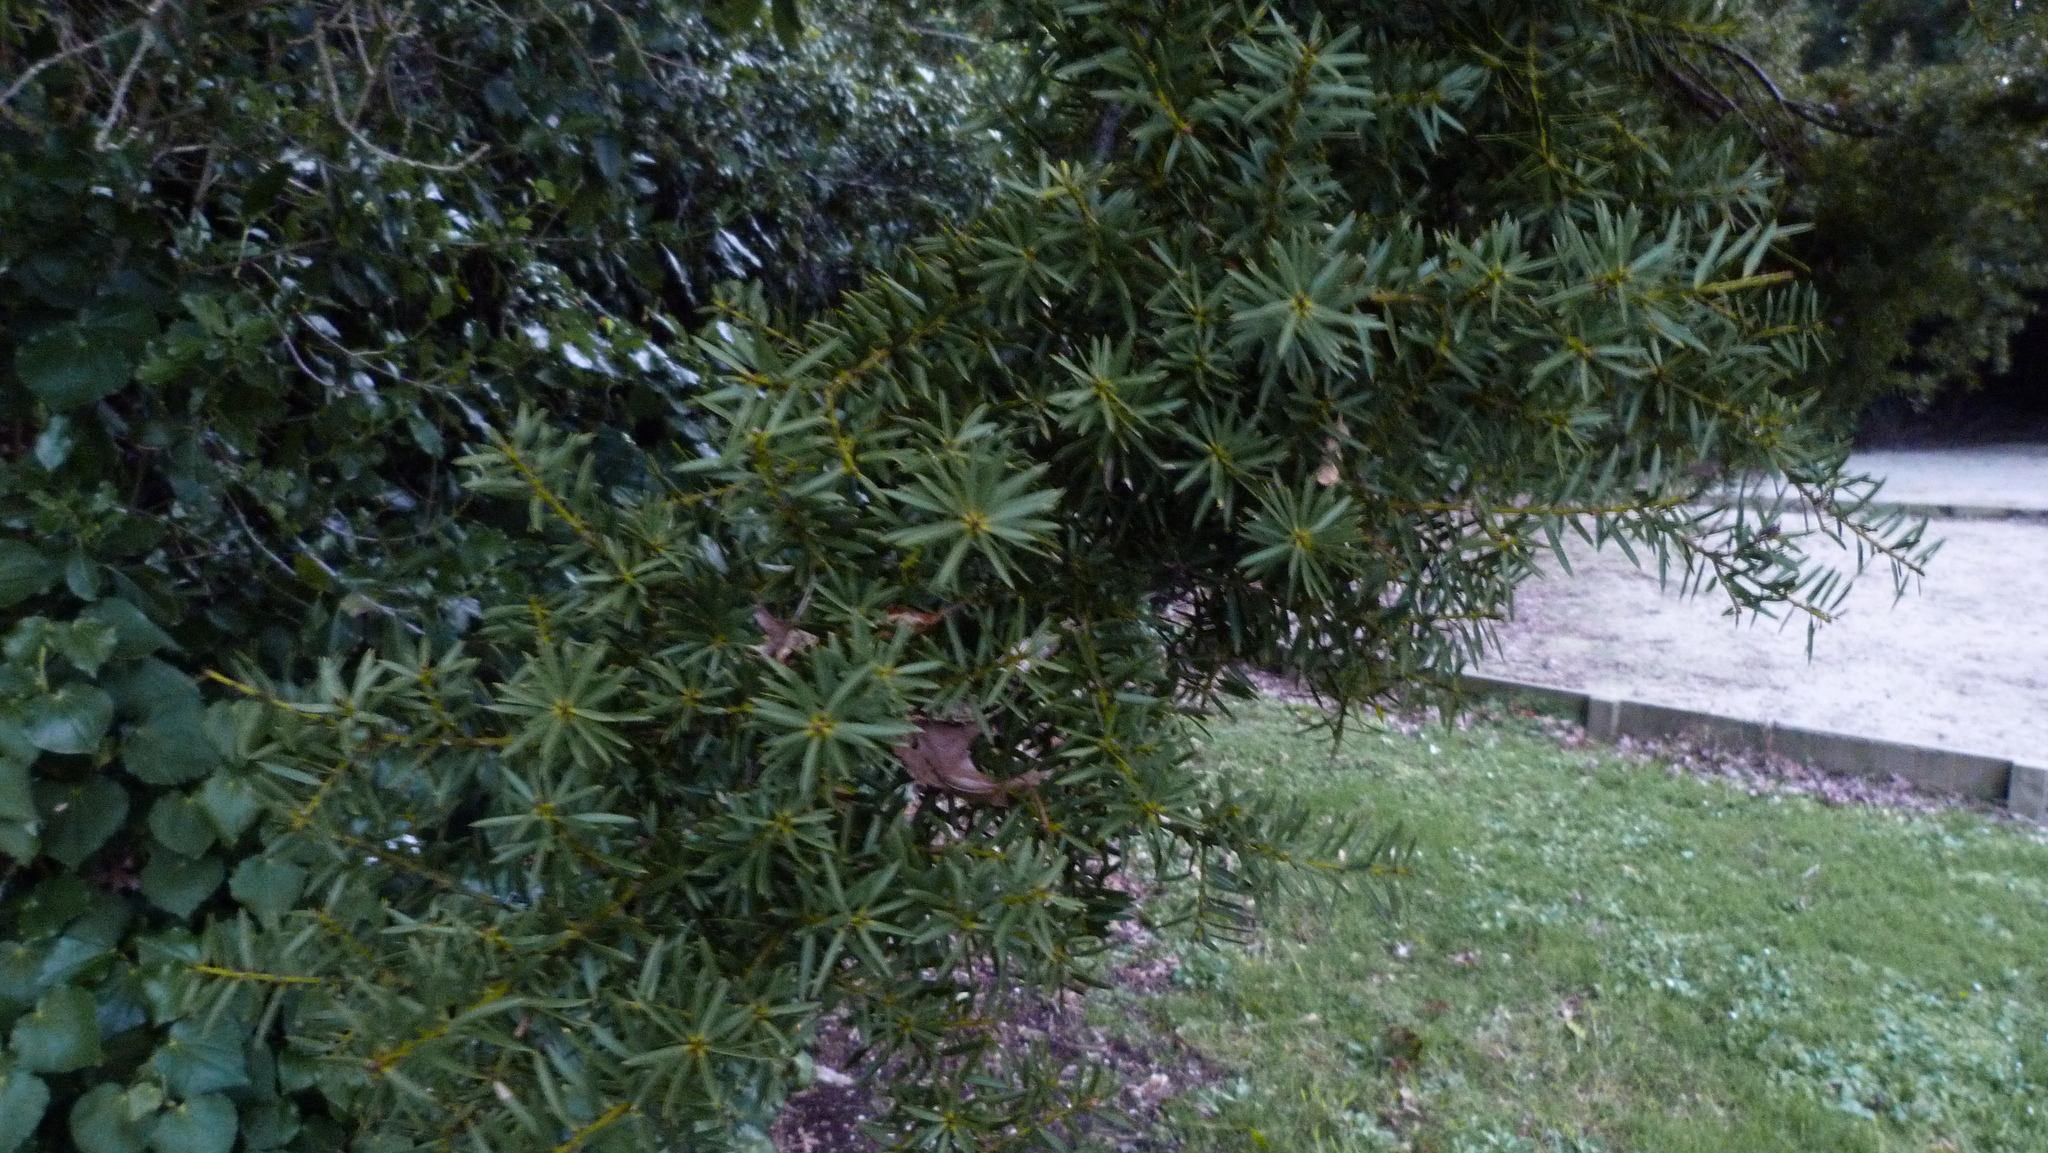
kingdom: Plantae
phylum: Tracheophyta
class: Pinopsida
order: Pinales
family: Podocarpaceae
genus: Podocarpus
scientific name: Podocarpus totara
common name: Totara
